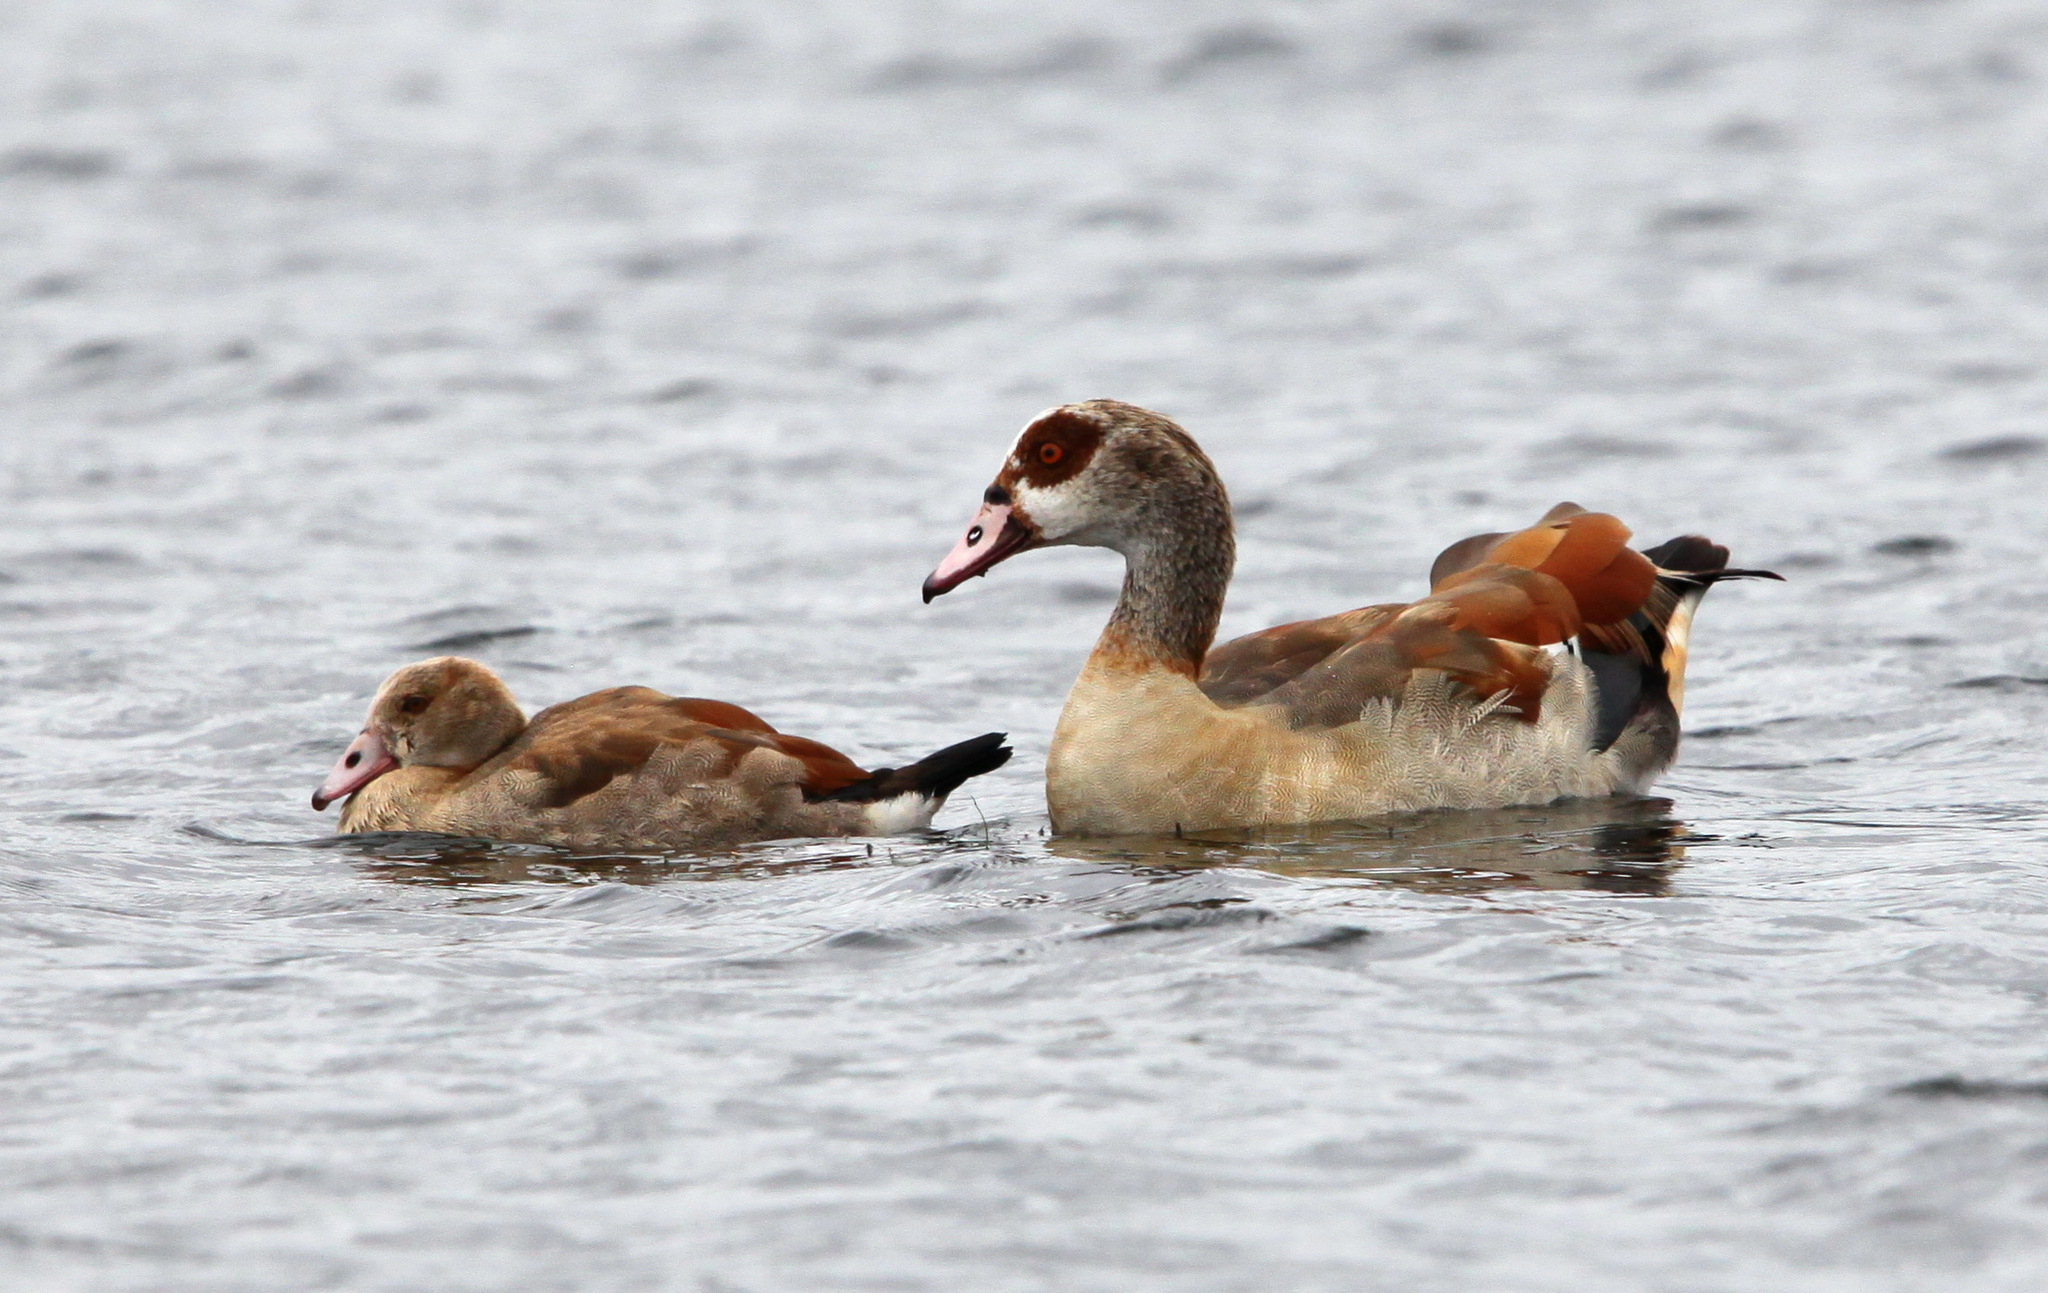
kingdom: Animalia
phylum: Chordata
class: Aves
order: Anseriformes
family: Anatidae
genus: Alopochen
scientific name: Alopochen aegyptiaca
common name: Egyptian goose
